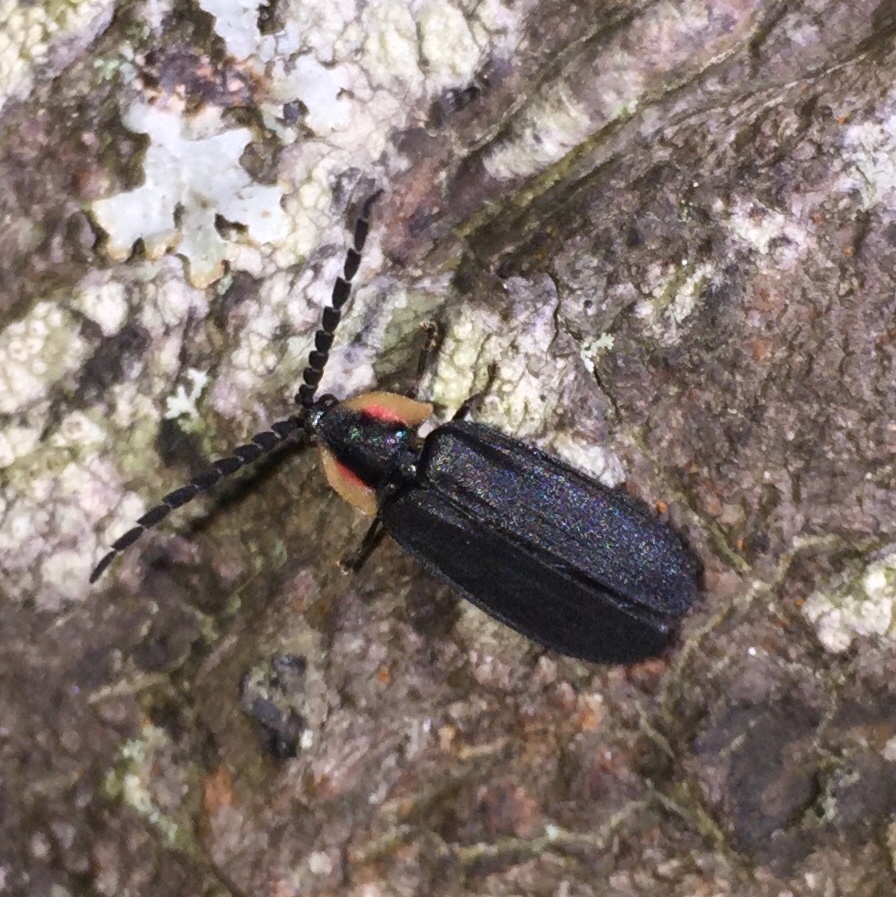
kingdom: Animalia
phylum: Arthropoda
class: Insecta
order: Coleoptera
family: Lampyridae
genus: Lucidota
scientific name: Lucidota atra
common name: Black firefly
